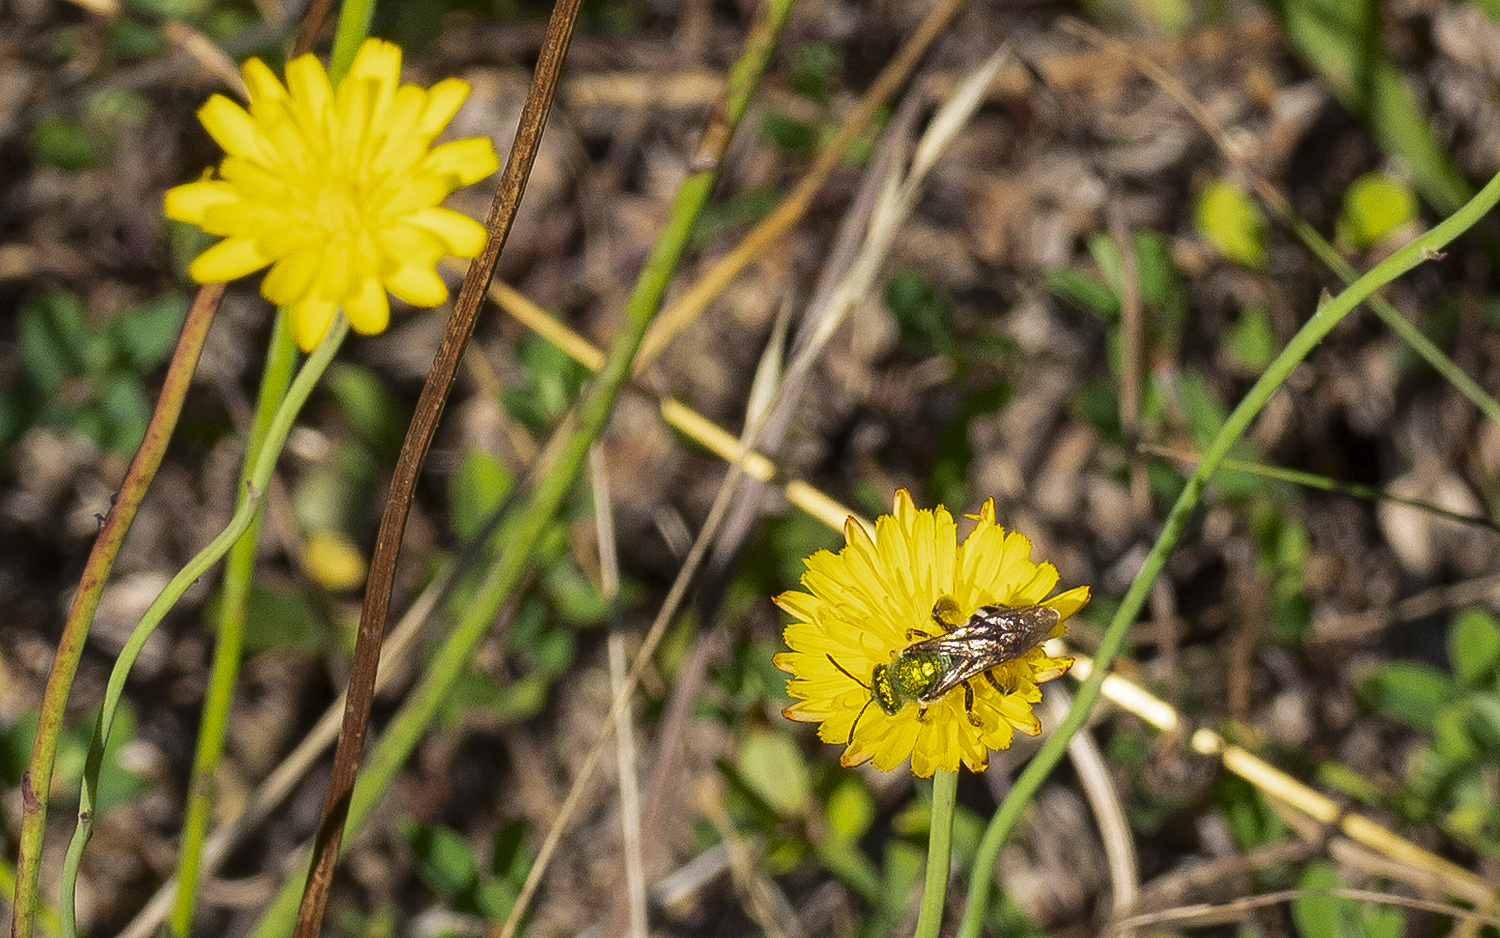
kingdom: Animalia
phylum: Arthropoda
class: Insecta
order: Hymenoptera
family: Halictidae
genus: Agapostemon
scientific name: Agapostemon virescens
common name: Bicolored striped sweat bee
